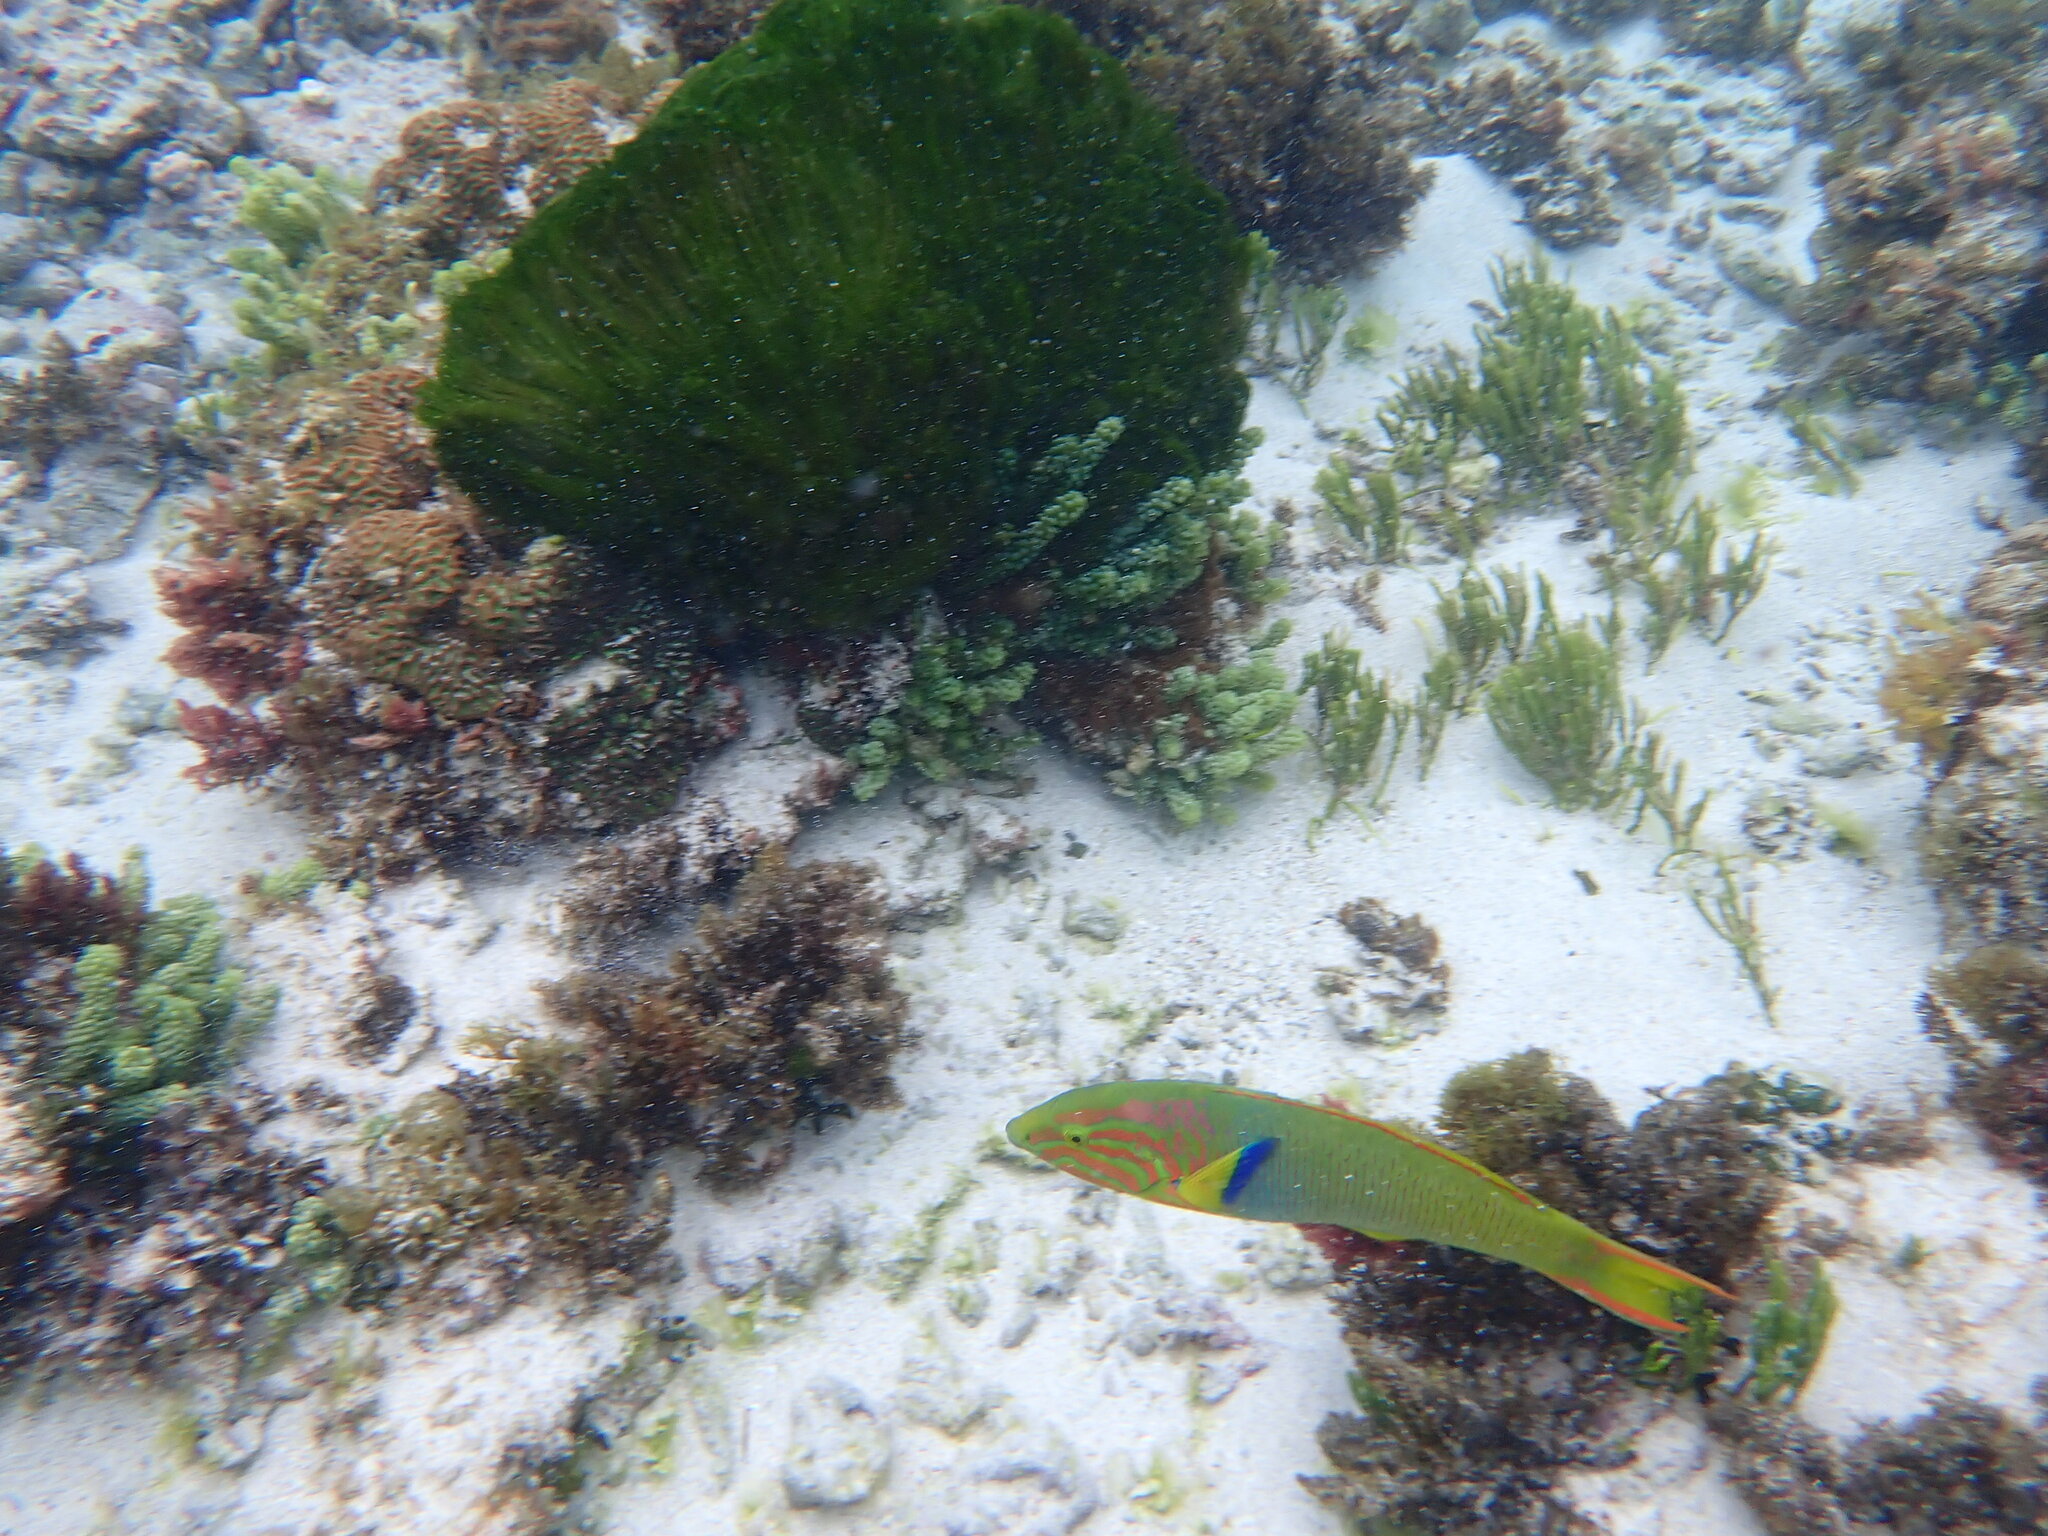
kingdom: Animalia
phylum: Chordata
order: Perciformes
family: Labridae
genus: Thalassoma
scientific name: Thalassoma lutescens
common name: Green moon wrasse
